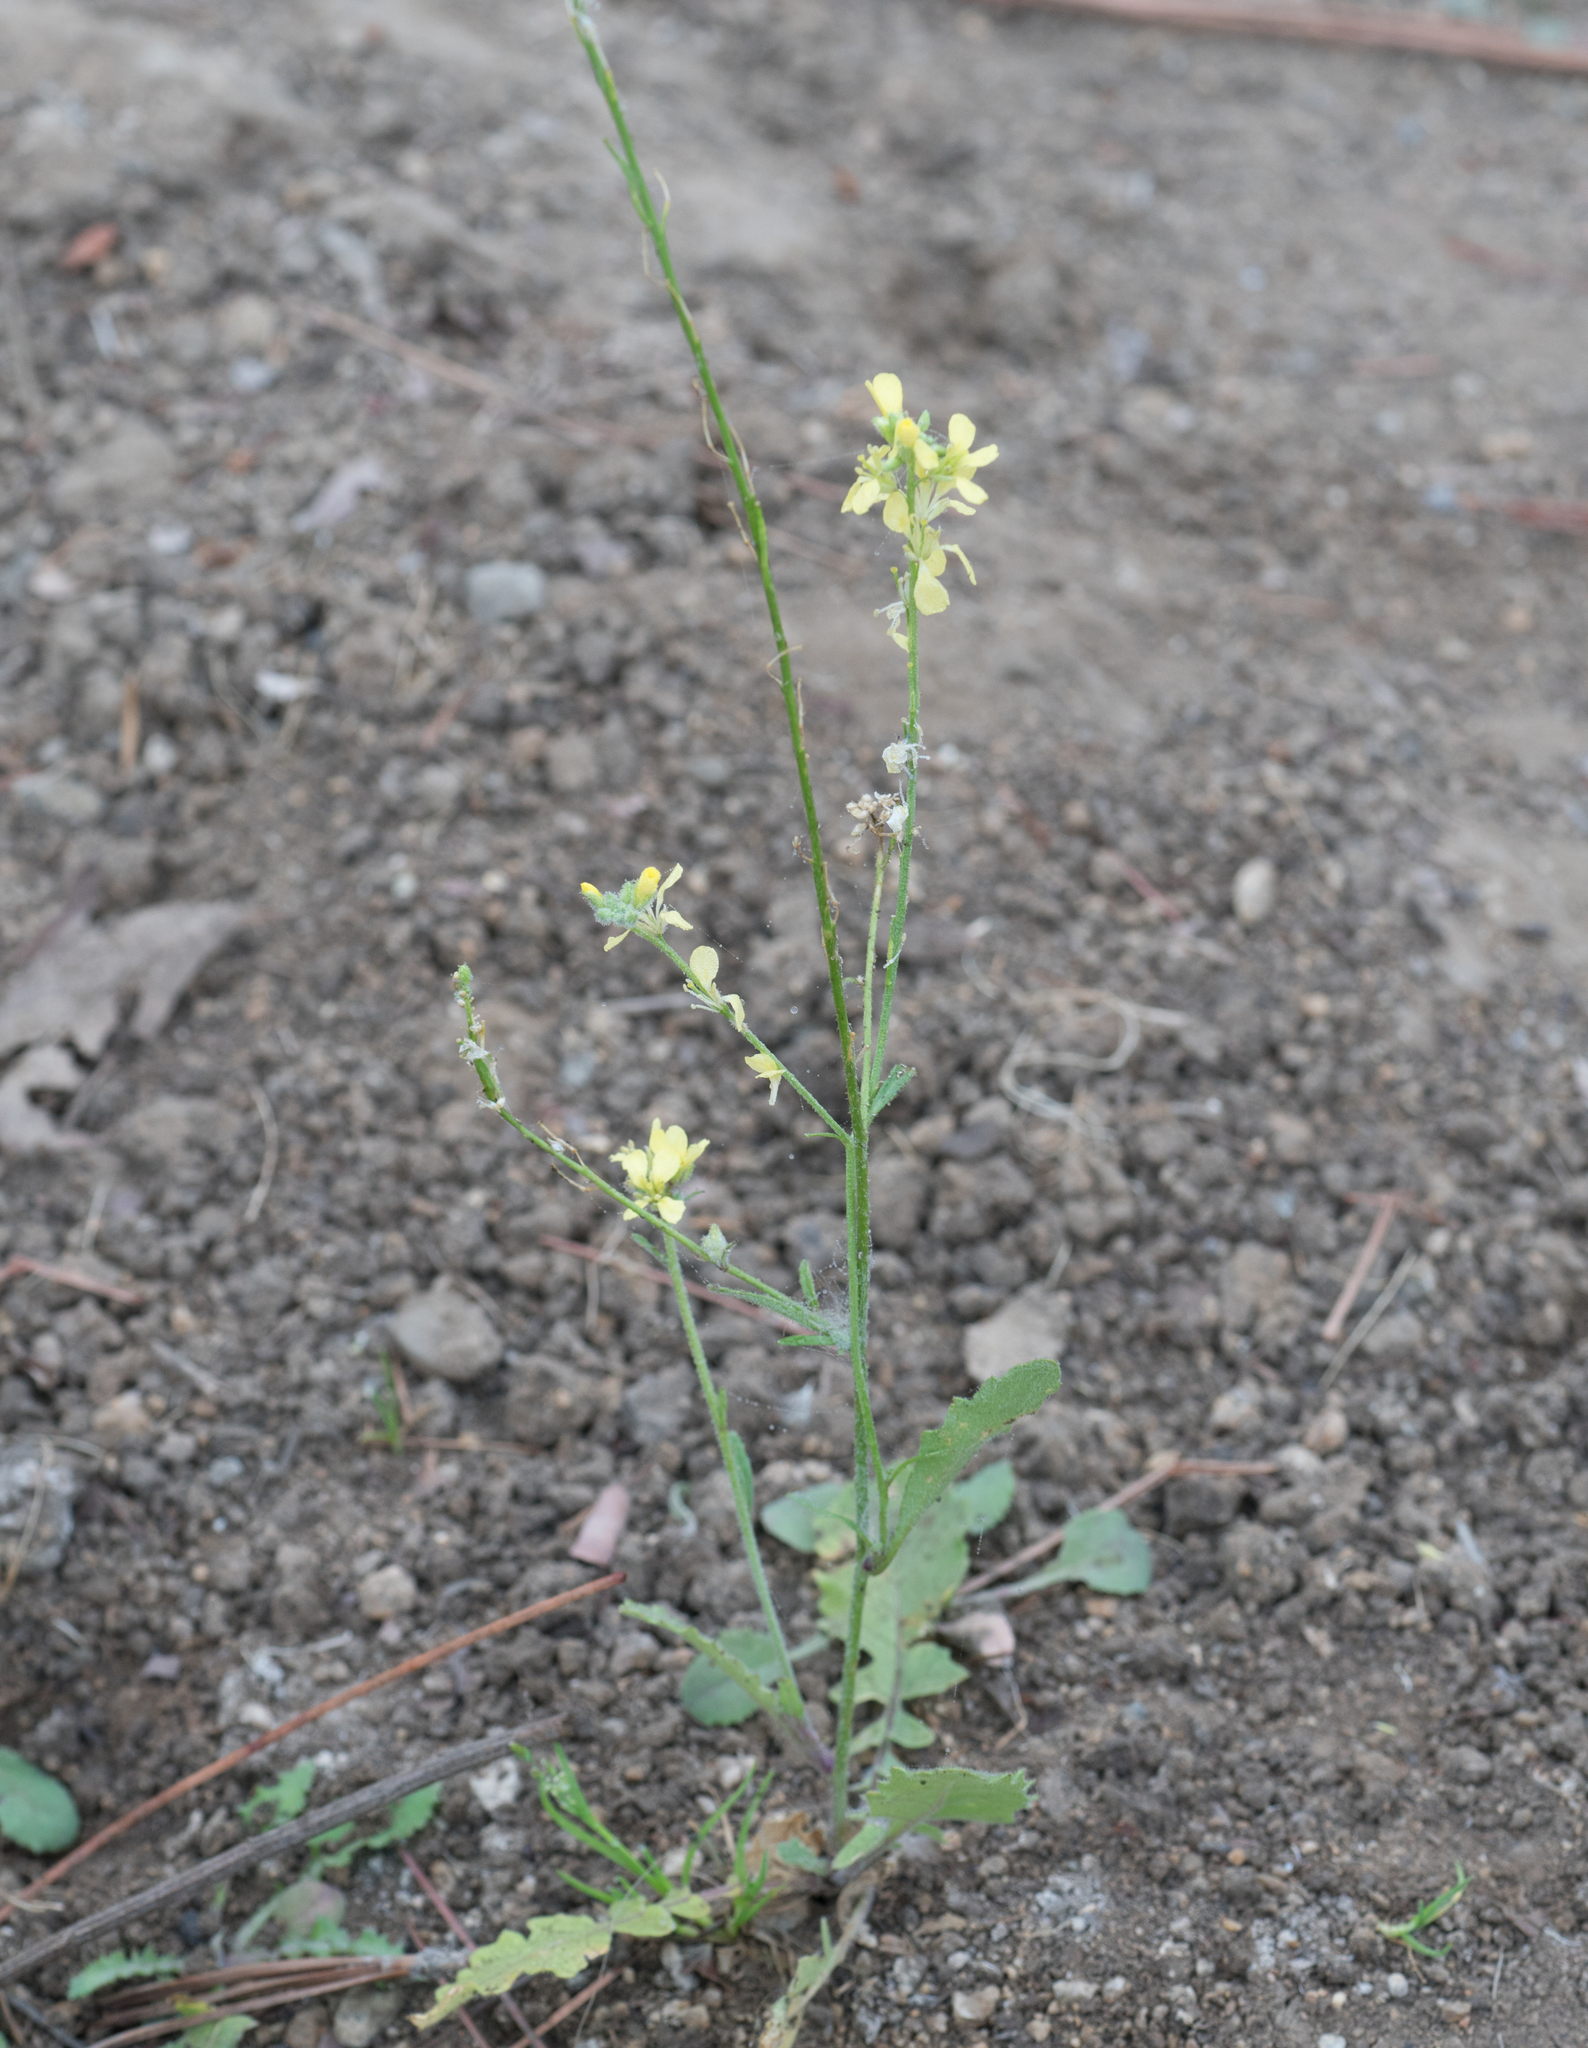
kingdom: Plantae
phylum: Tracheophyta
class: Magnoliopsida
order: Brassicales
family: Brassicaceae
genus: Hirschfeldia
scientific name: Hirschfeldia incana
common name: Hoary mustard
